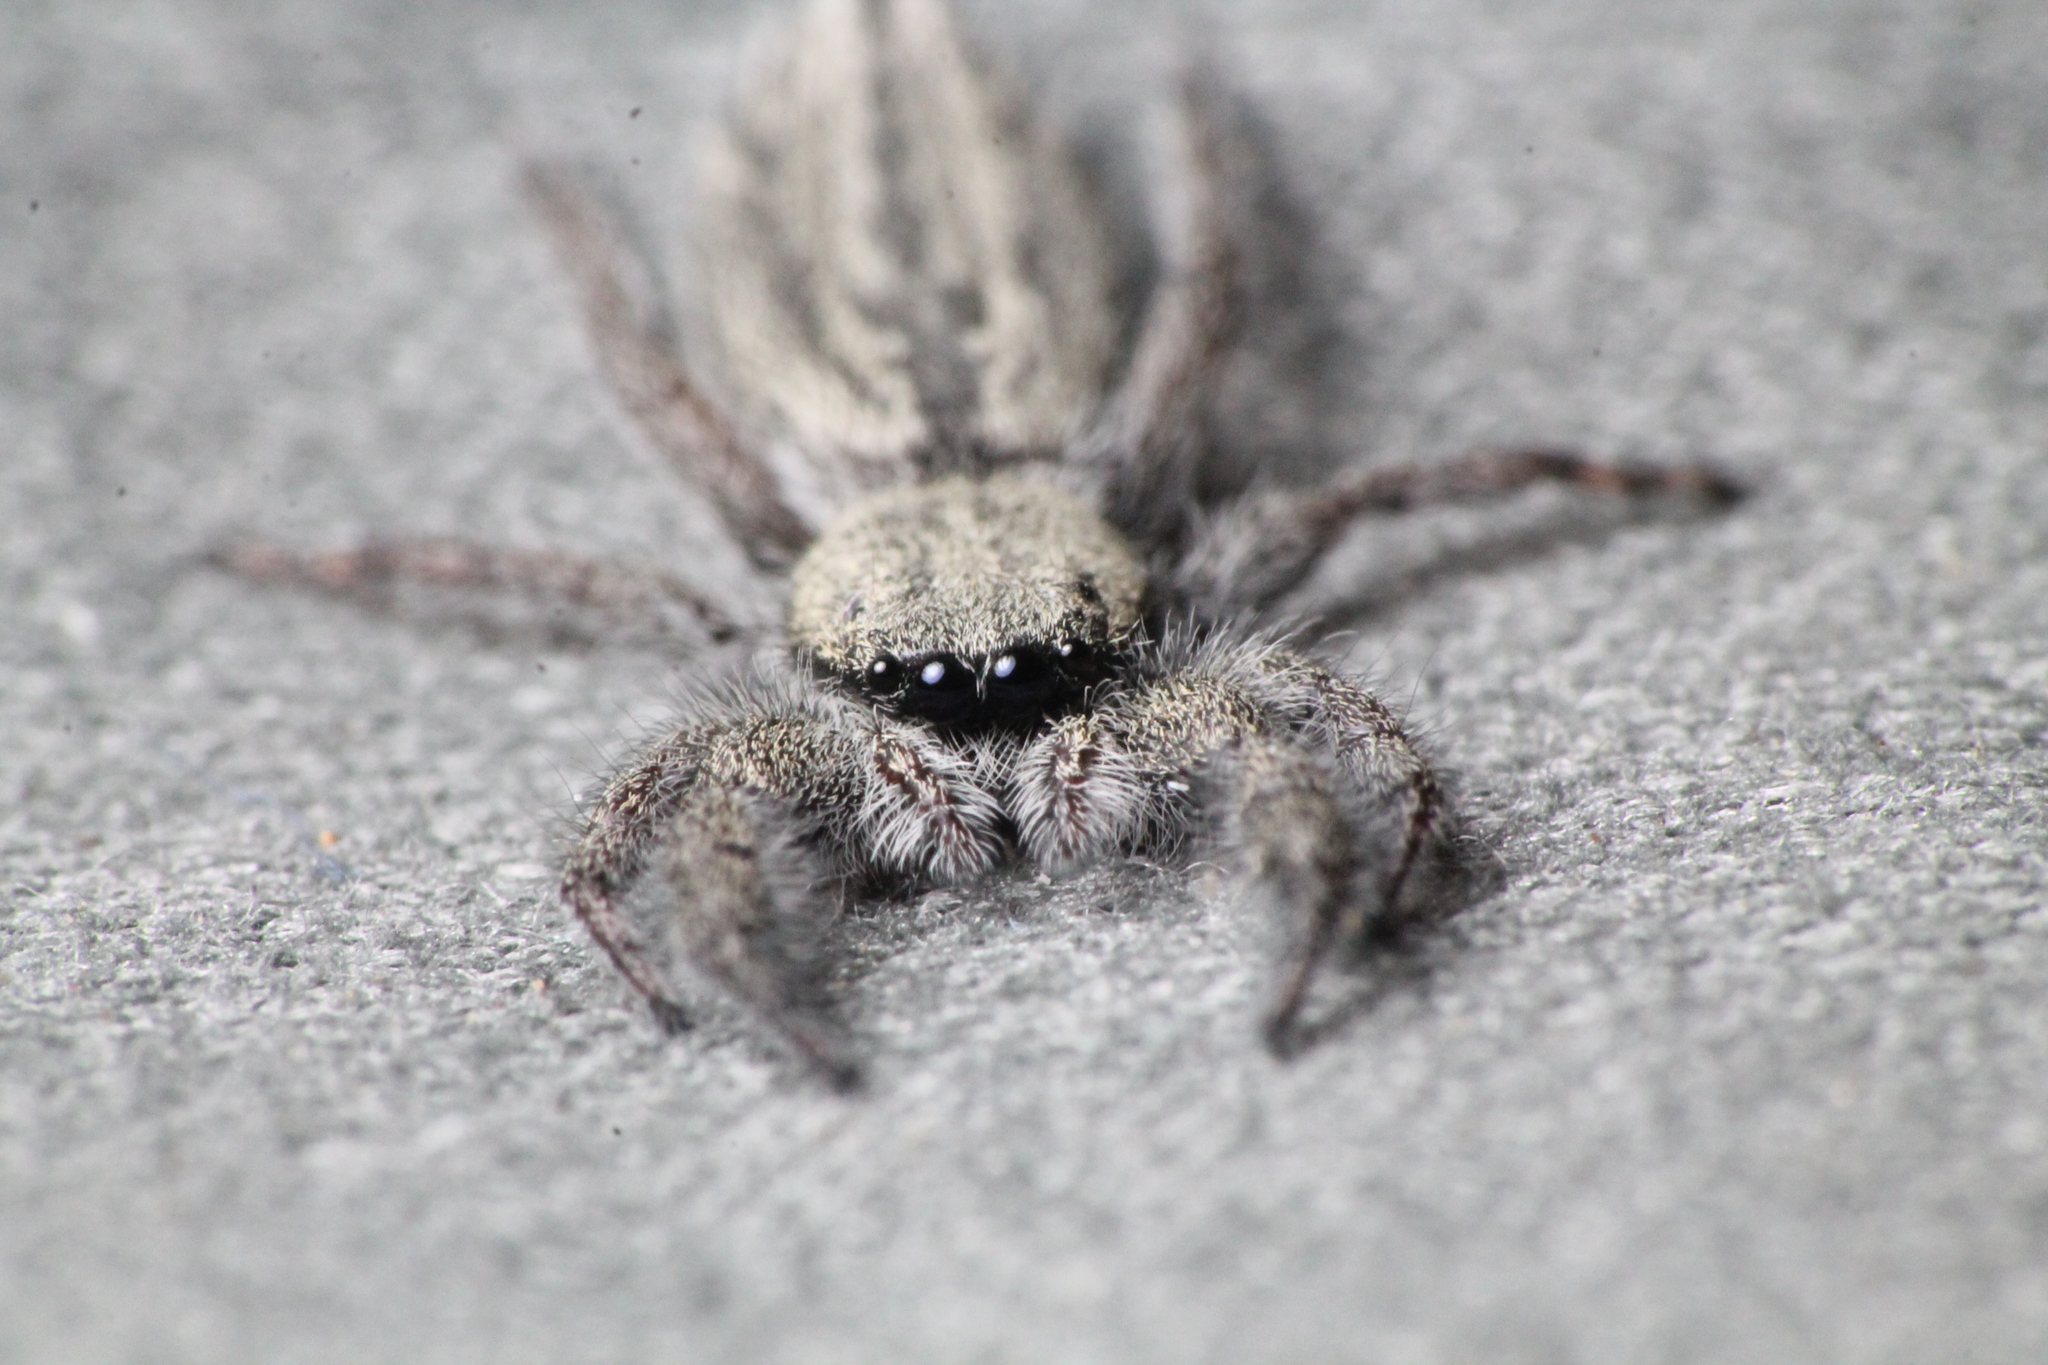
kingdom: Animalia
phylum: Arthropoda
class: Arachnida
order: Araneae
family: Salticidae
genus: Holoplatys
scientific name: Holoplatys apressus
